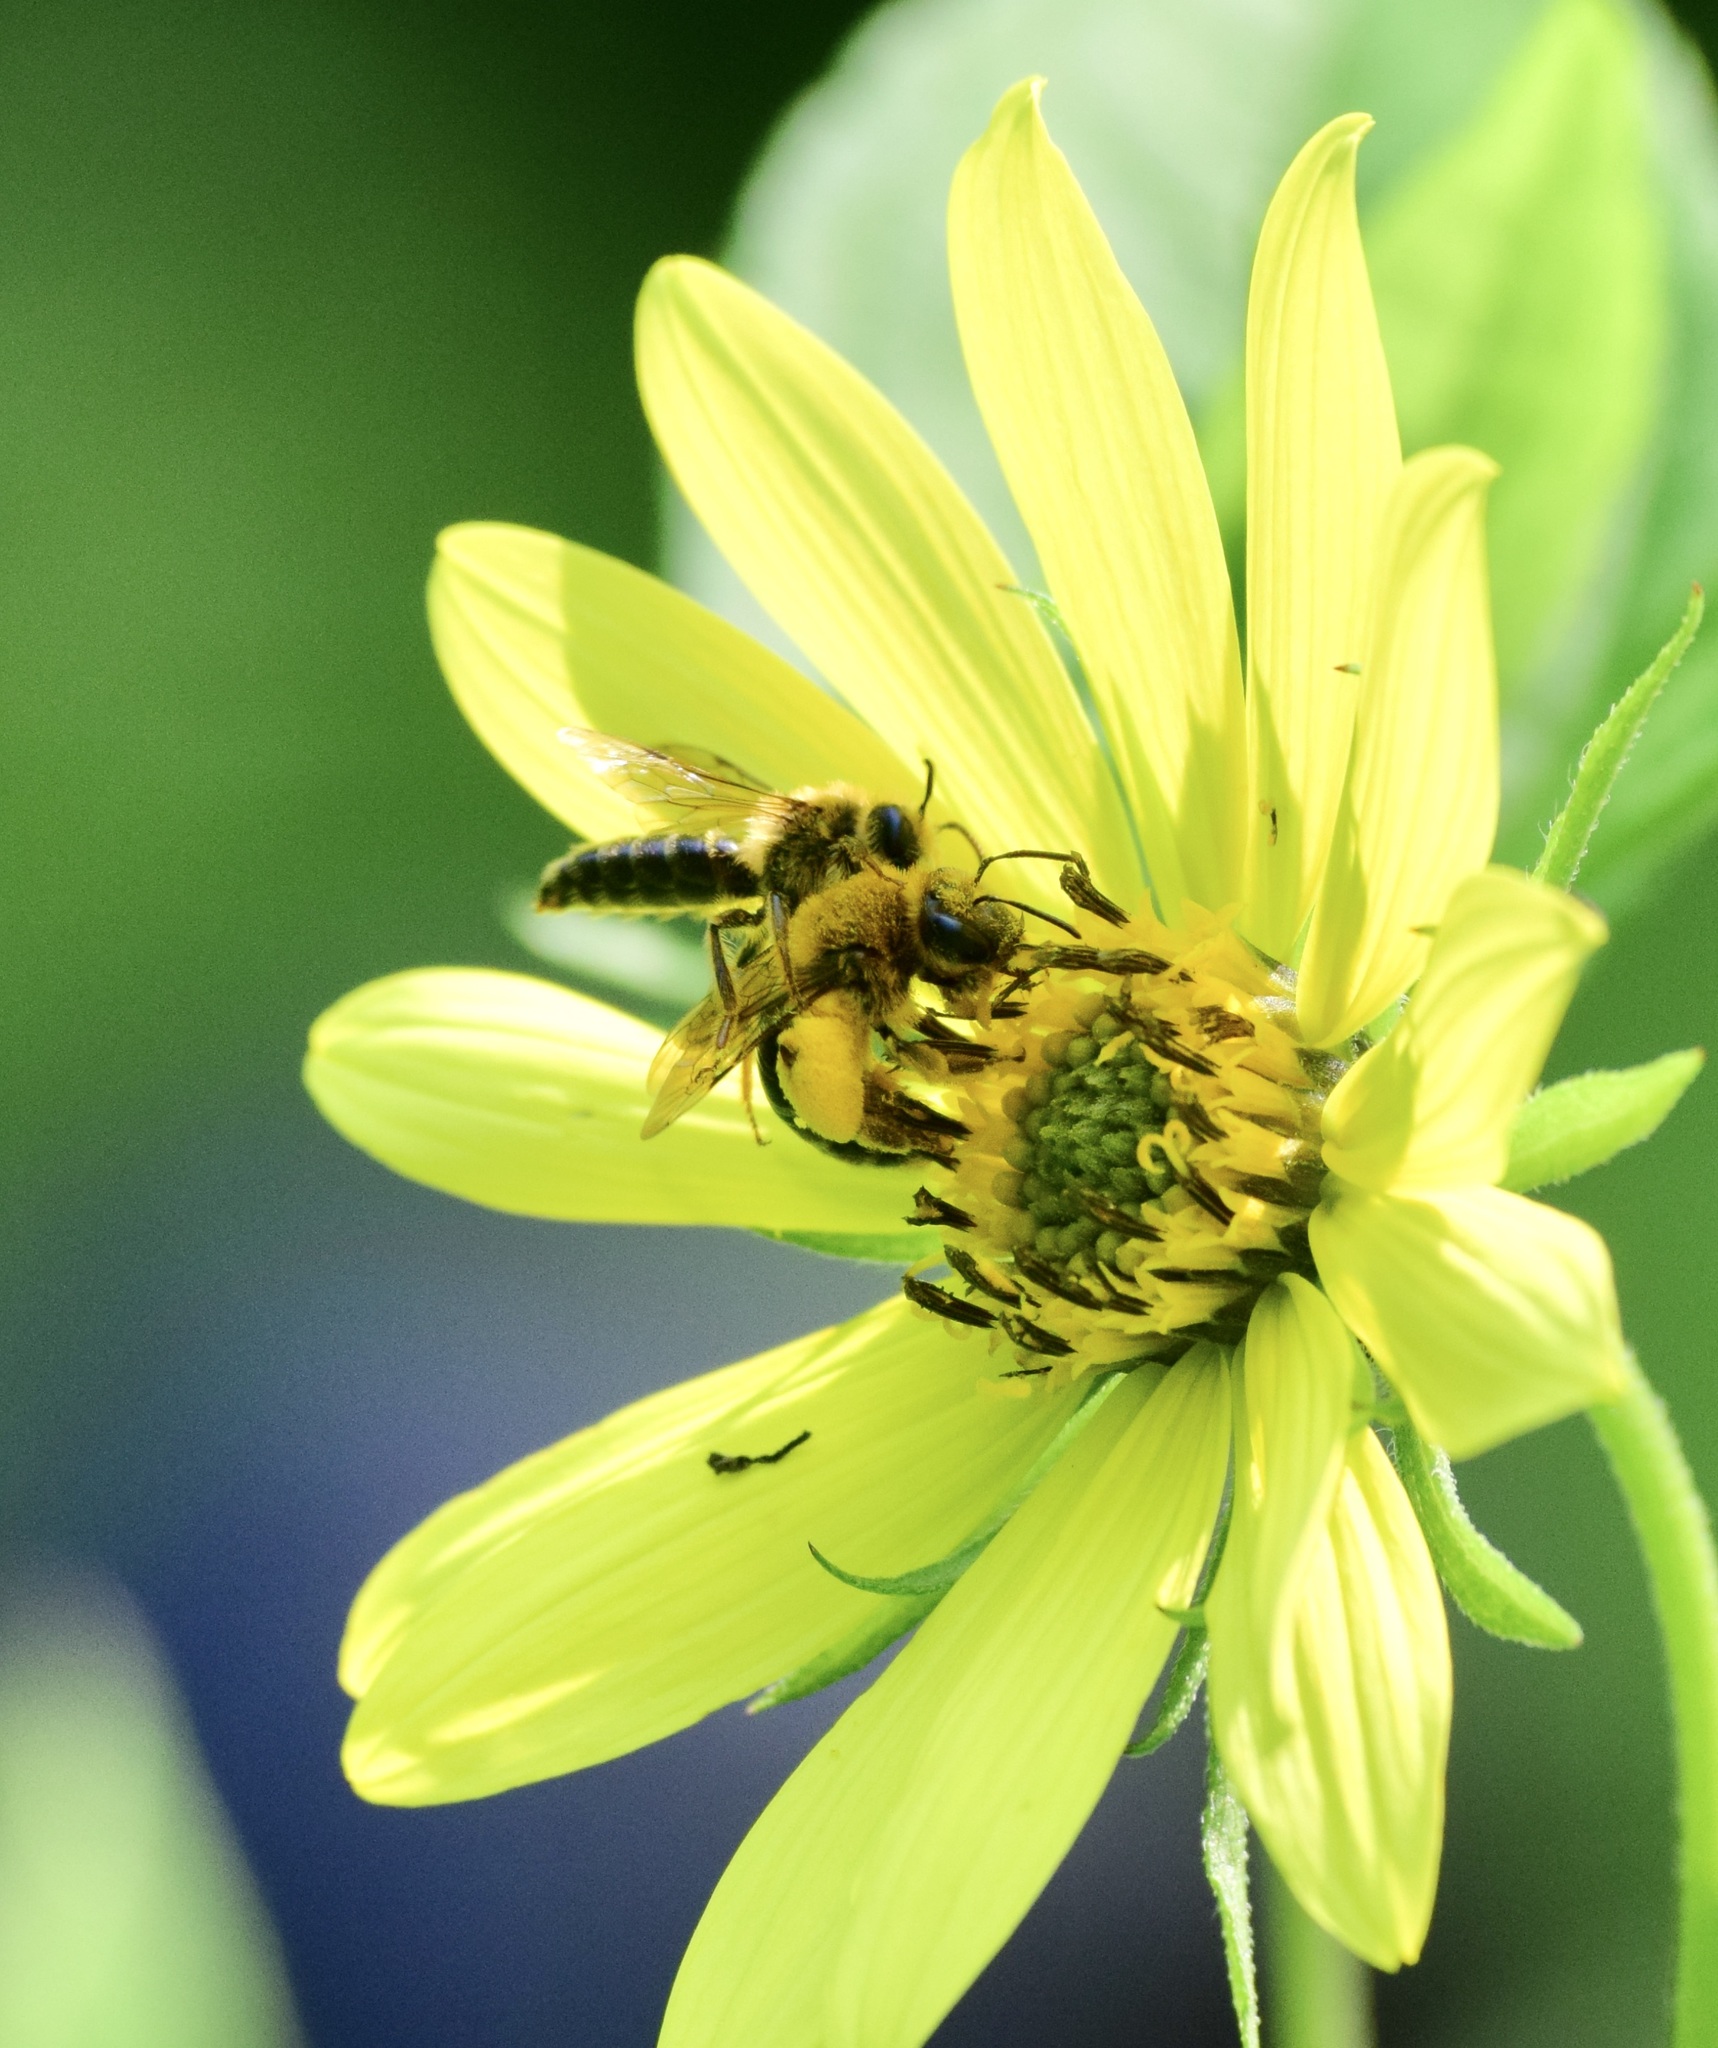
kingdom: Animalia
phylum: Arthropoda
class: Insecta
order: Hymenoptera
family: Andrenidae
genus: Andrena
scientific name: Andrena helianthi
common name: Sunflower mining bee
